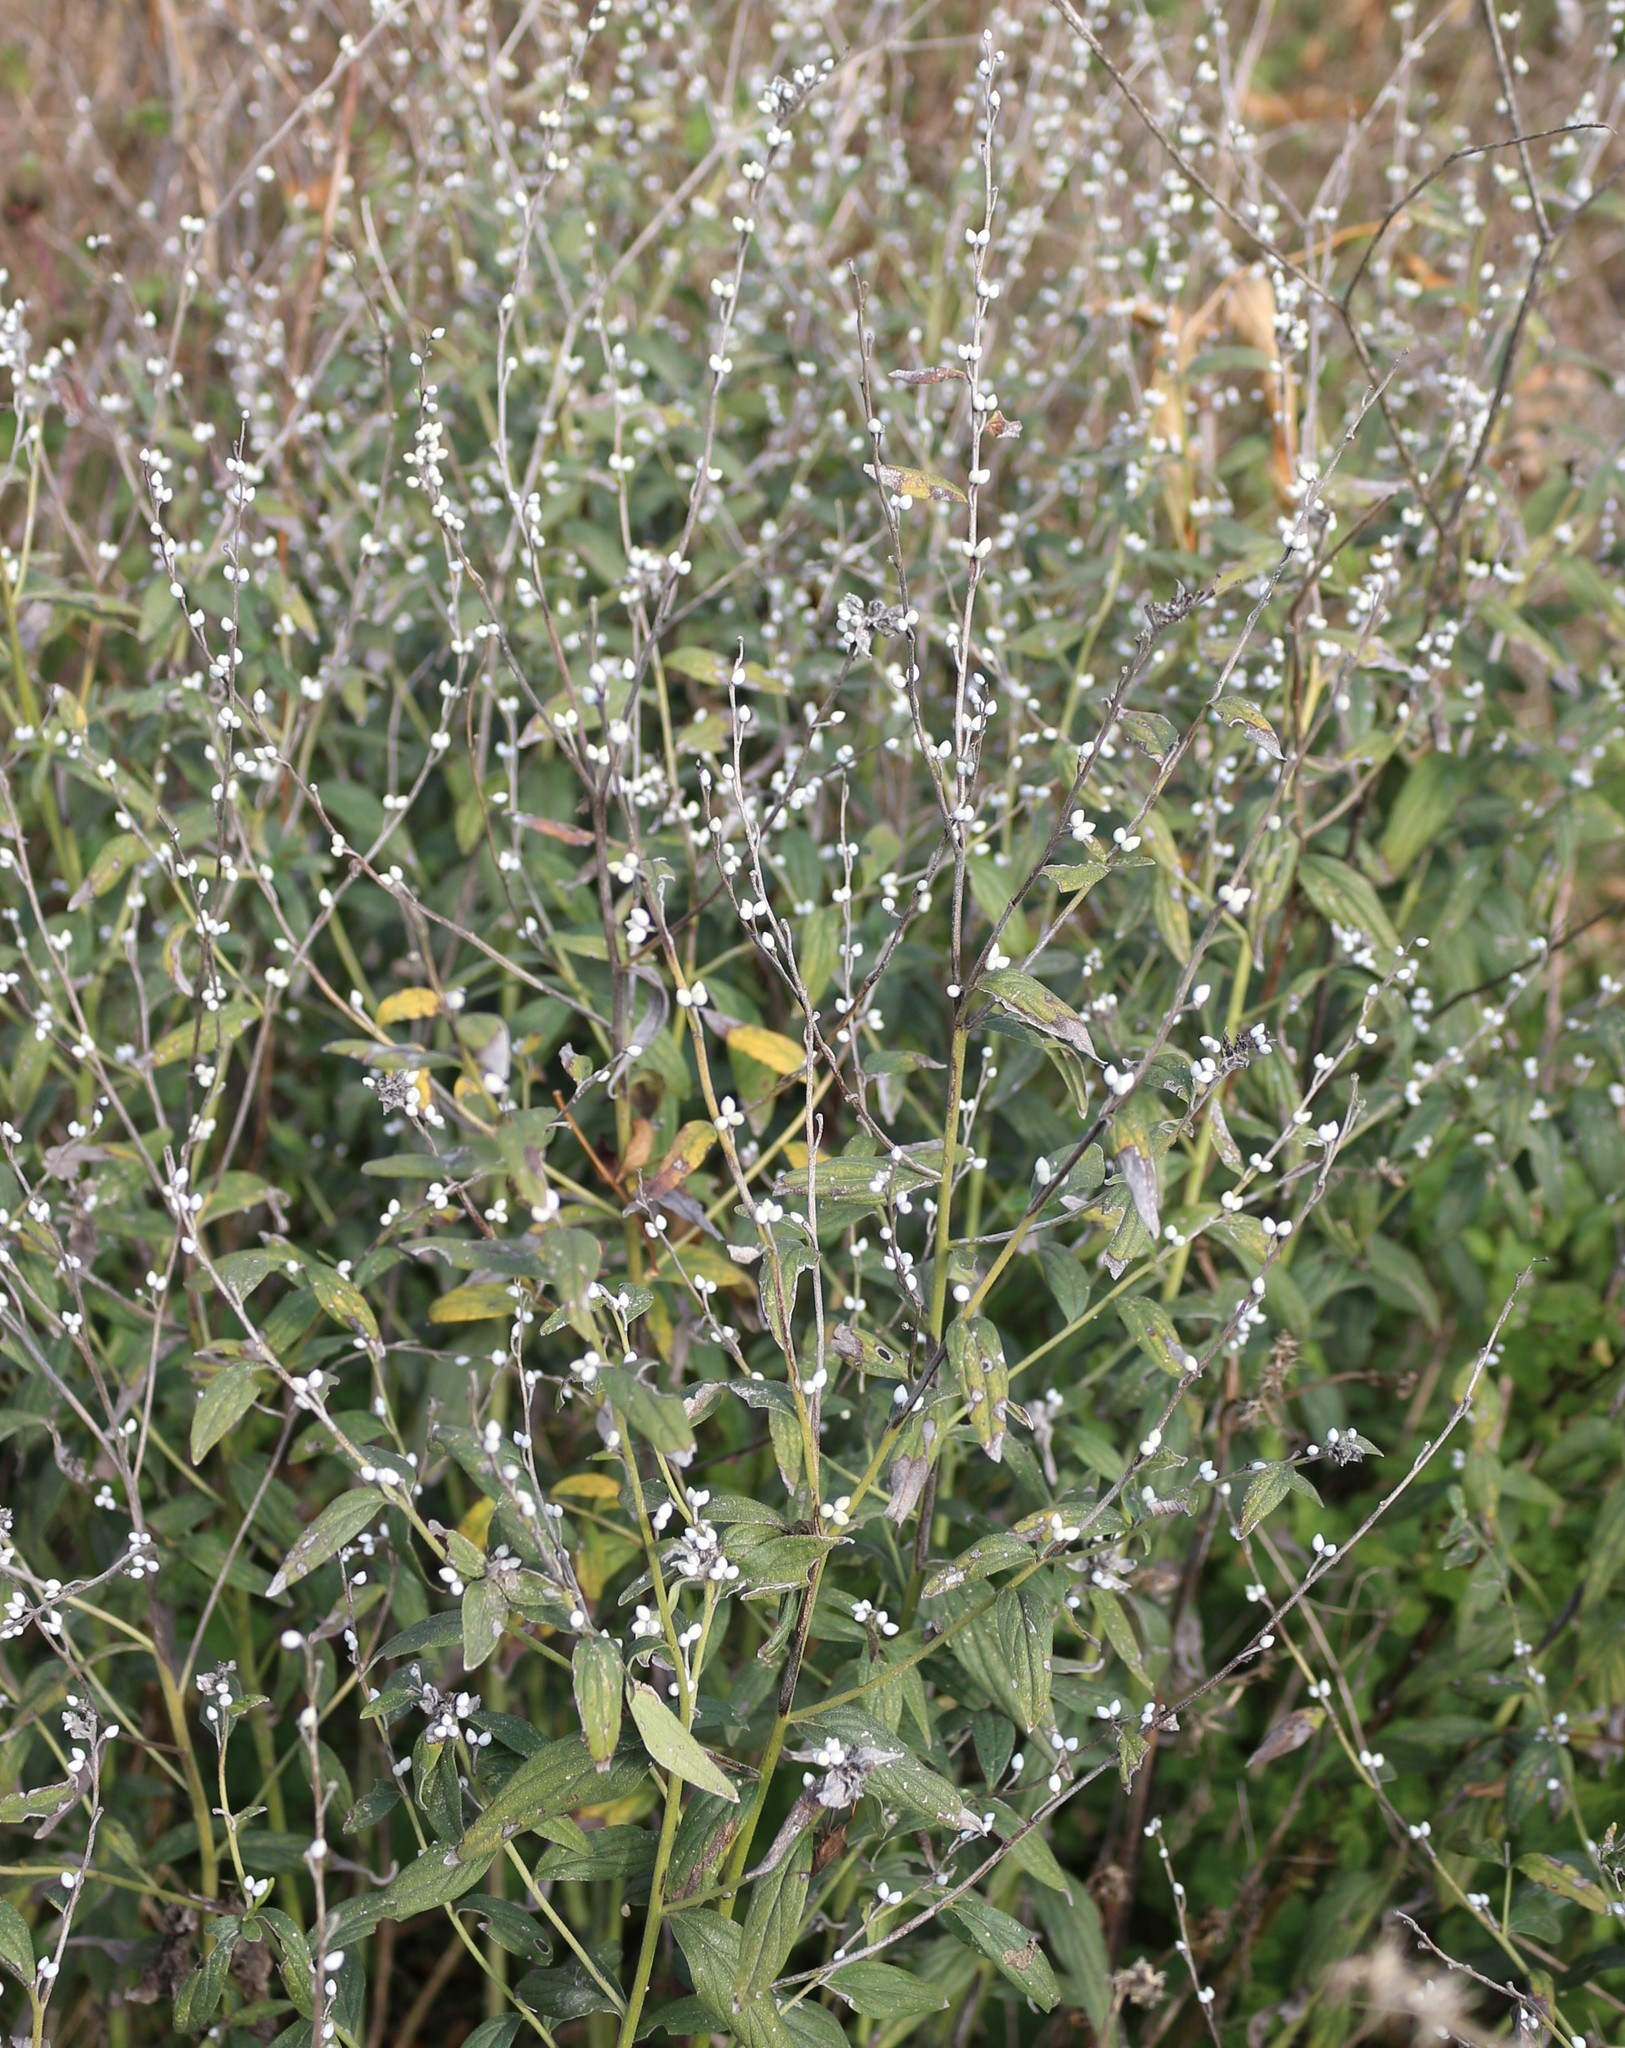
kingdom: Plantae
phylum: Tracheophyta
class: Magnoliopsida
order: Boraginales
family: Boraginaceae
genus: Lithospermum
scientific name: Lithospermum officinale
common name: Common gromwell
